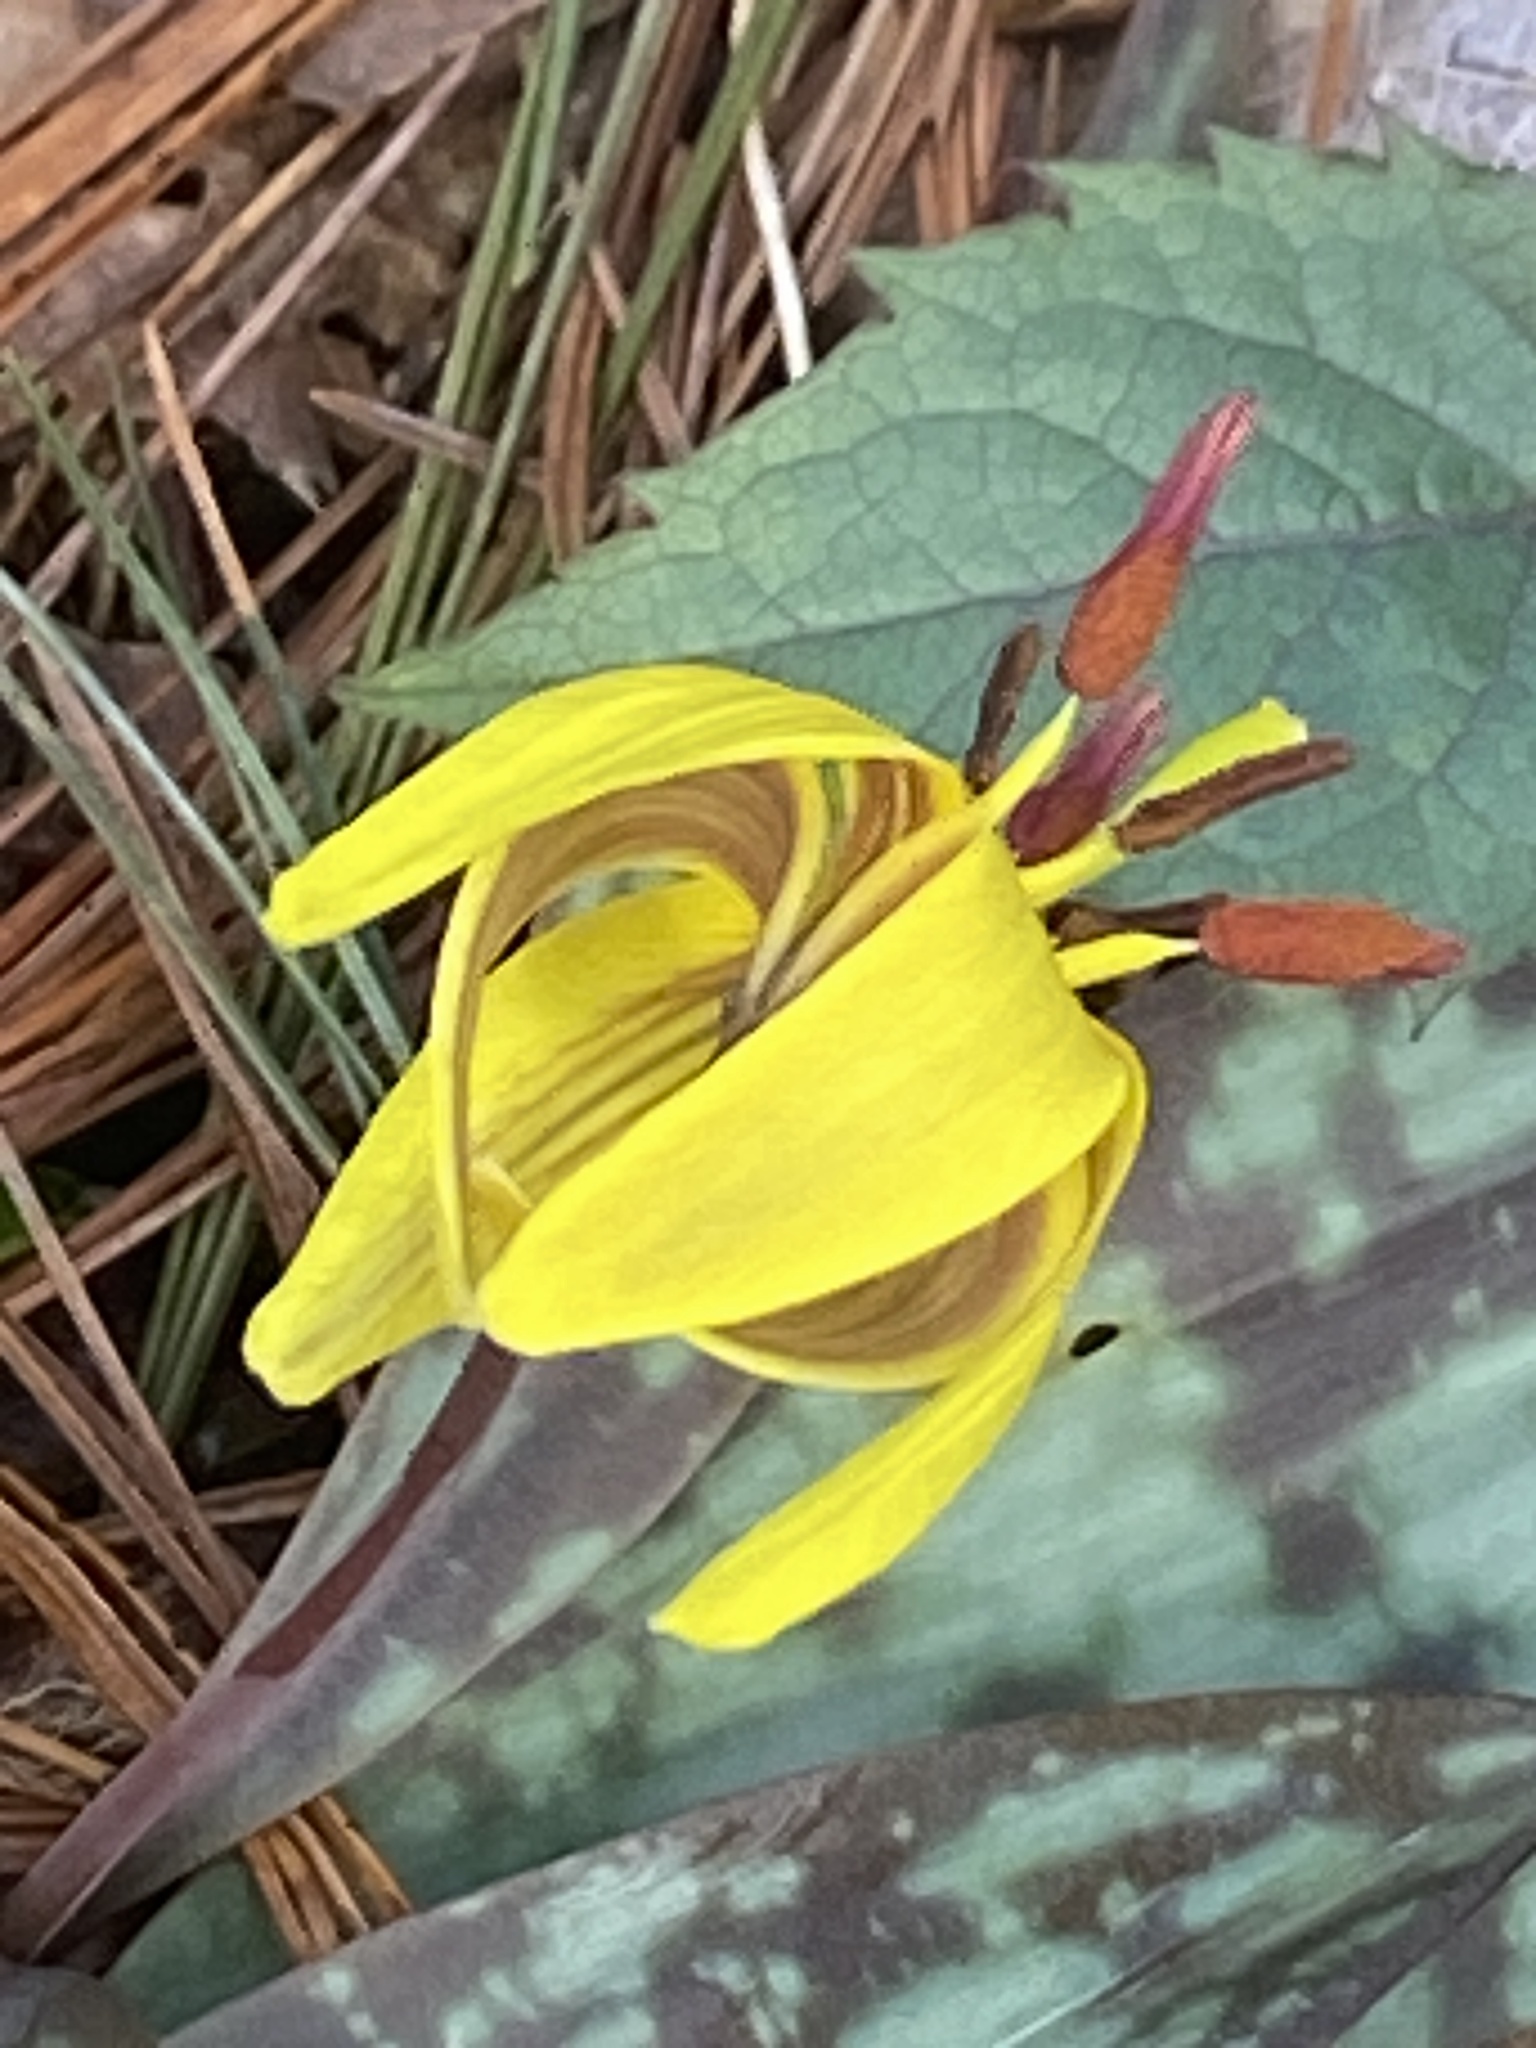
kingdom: Plantae
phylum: Tracheophyta
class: Liliopsida
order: Liliales
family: Liliaceae
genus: Erythronium
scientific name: Erythronium americanum
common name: Yellow adder's-tongue
